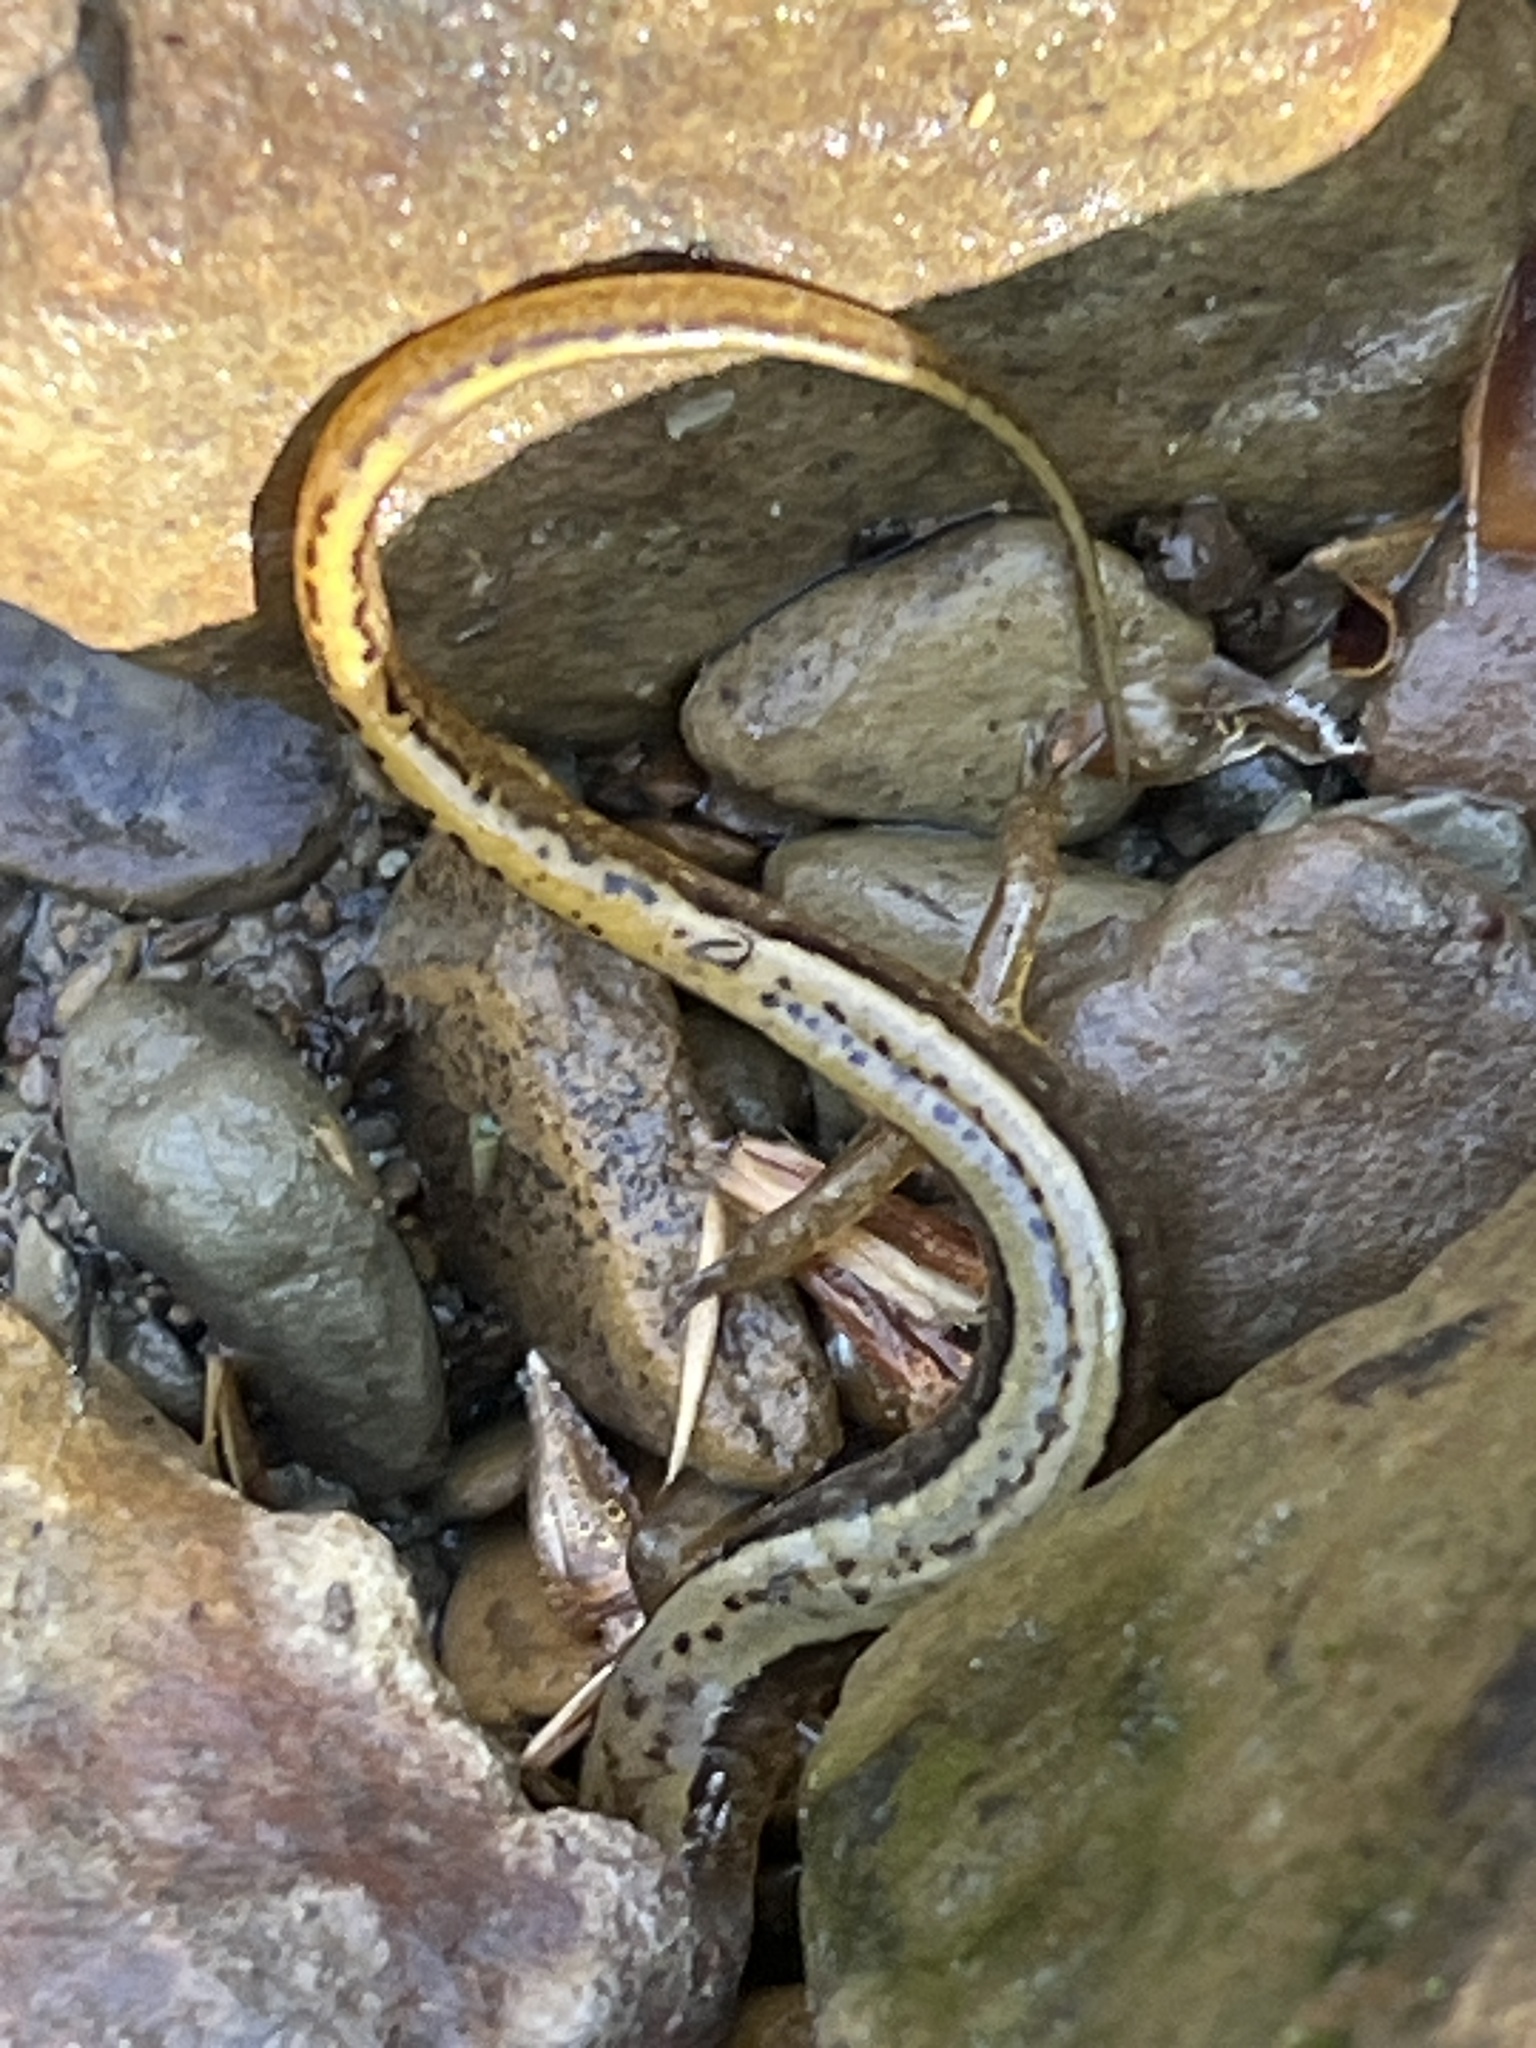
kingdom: Animalia
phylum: Chordata
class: Amphibia
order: Caudata
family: Plethodontidae
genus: Eurycea
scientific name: Eurycea cirrigera
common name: Southern two-lined salamander
